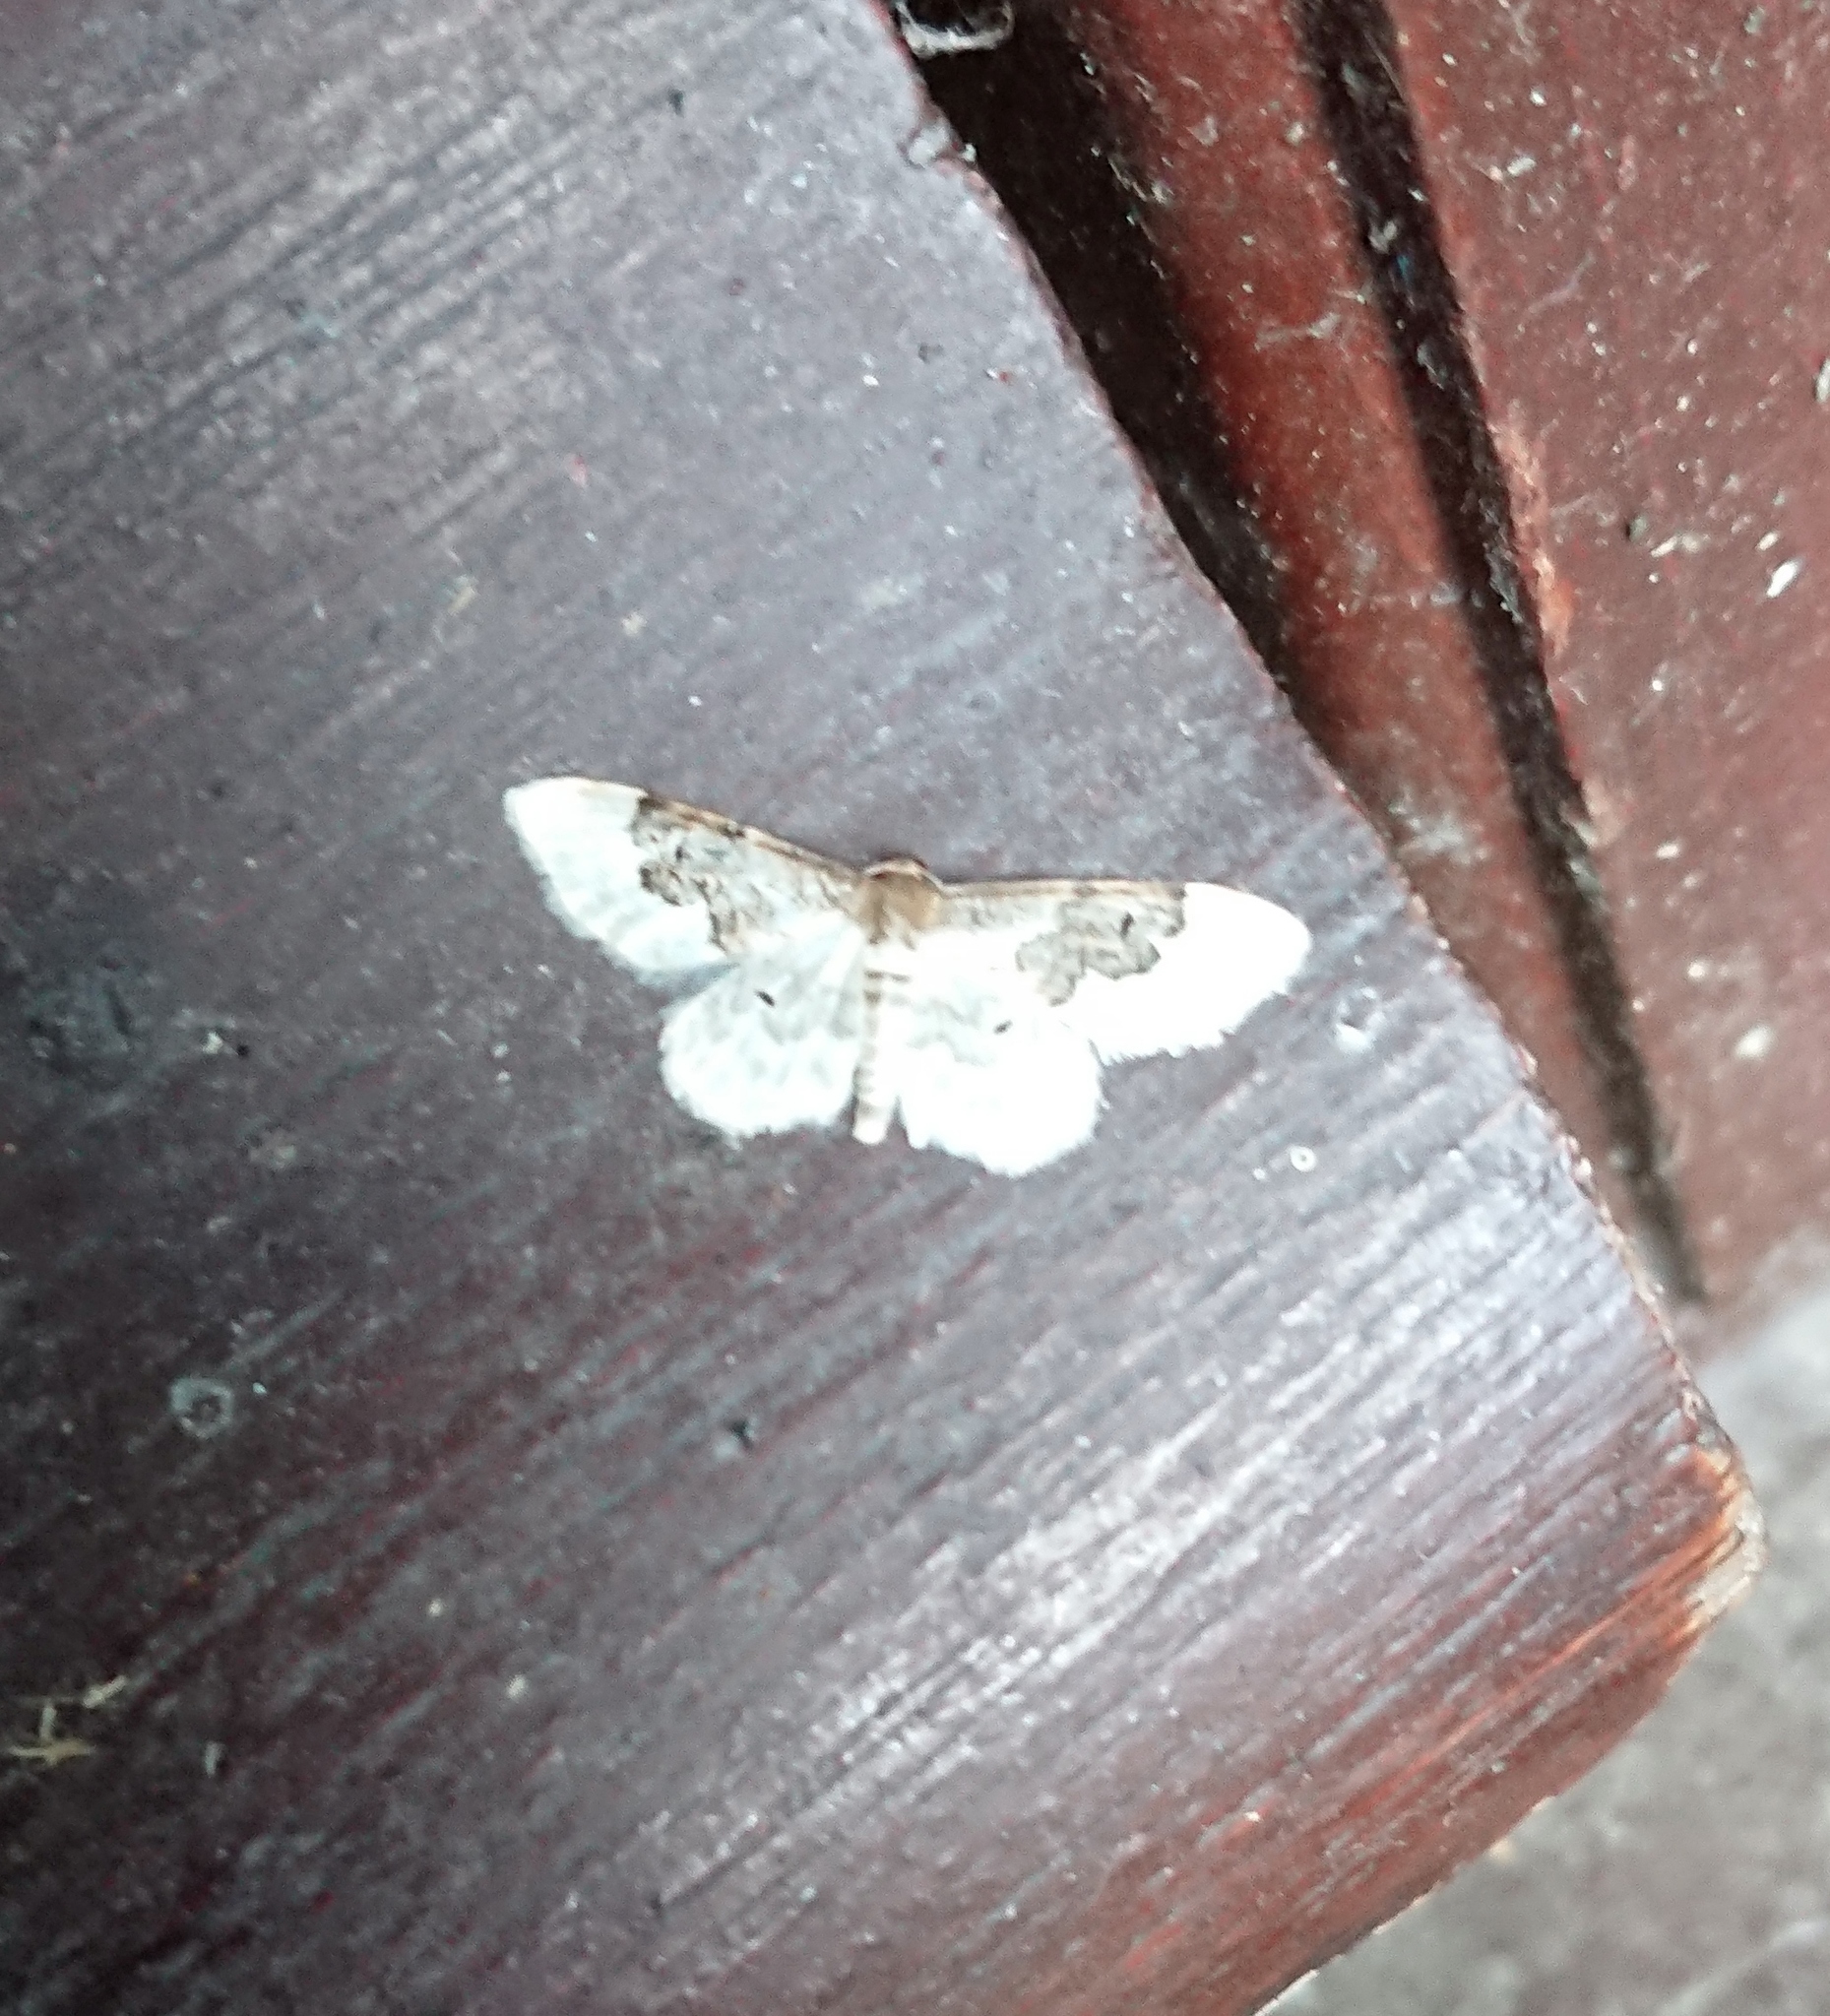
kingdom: Animalia
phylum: Arthropoda
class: Insecta
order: Lepidoptera
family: Geometridae
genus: Idaea
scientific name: Idaea rusticata
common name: Least carpet
